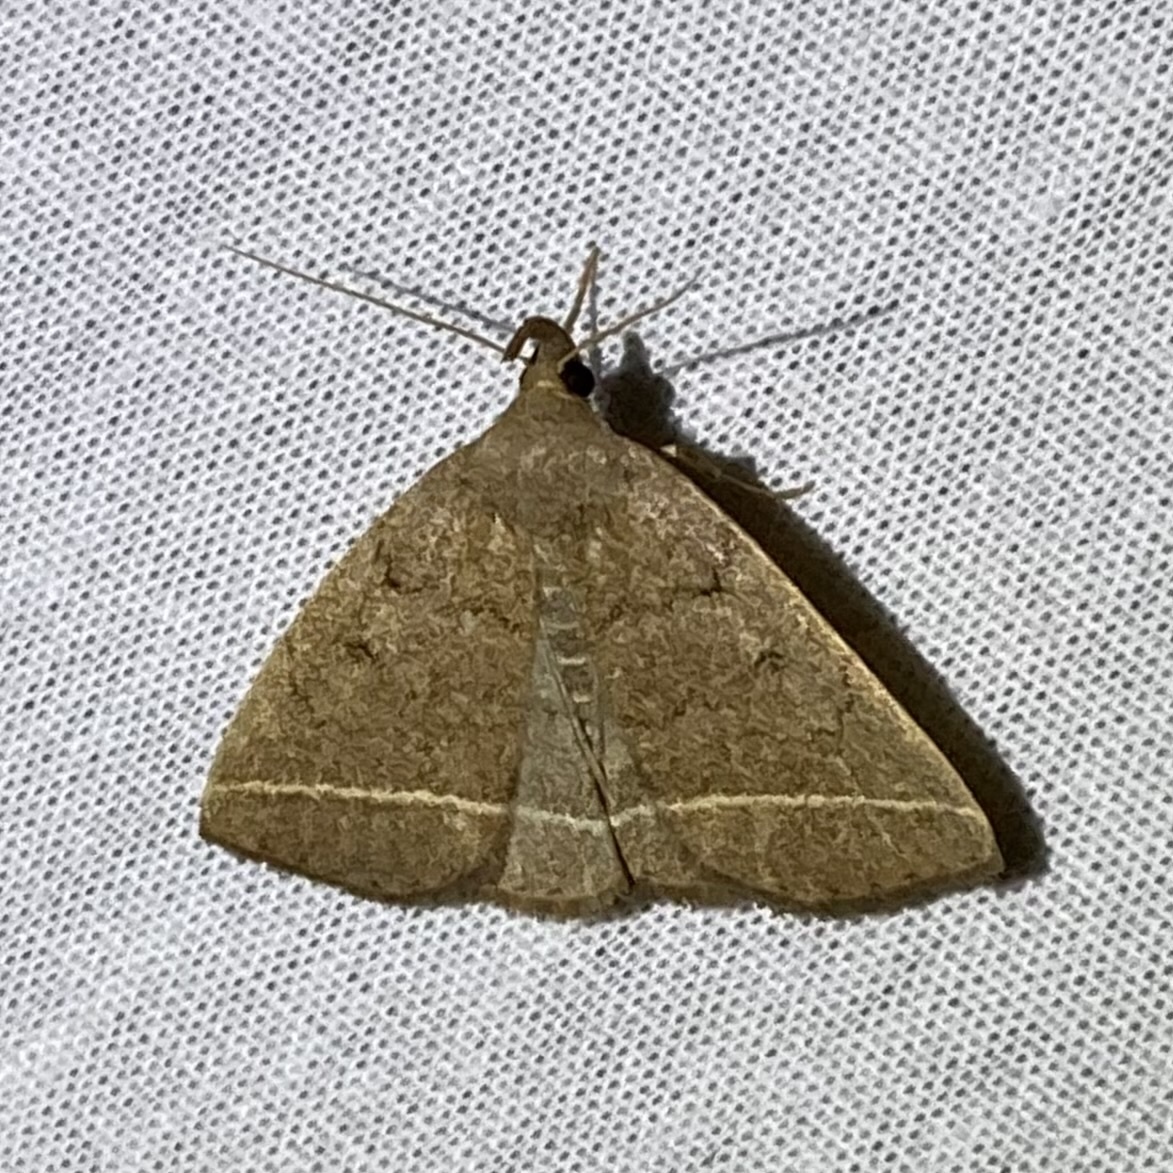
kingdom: Animalia
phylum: Arthropoda
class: Insecta
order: Lepidoptera
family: Erebidae
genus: Zanclognatha
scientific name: Zanclognatha marcidilinea
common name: Yellowish fan-foot
